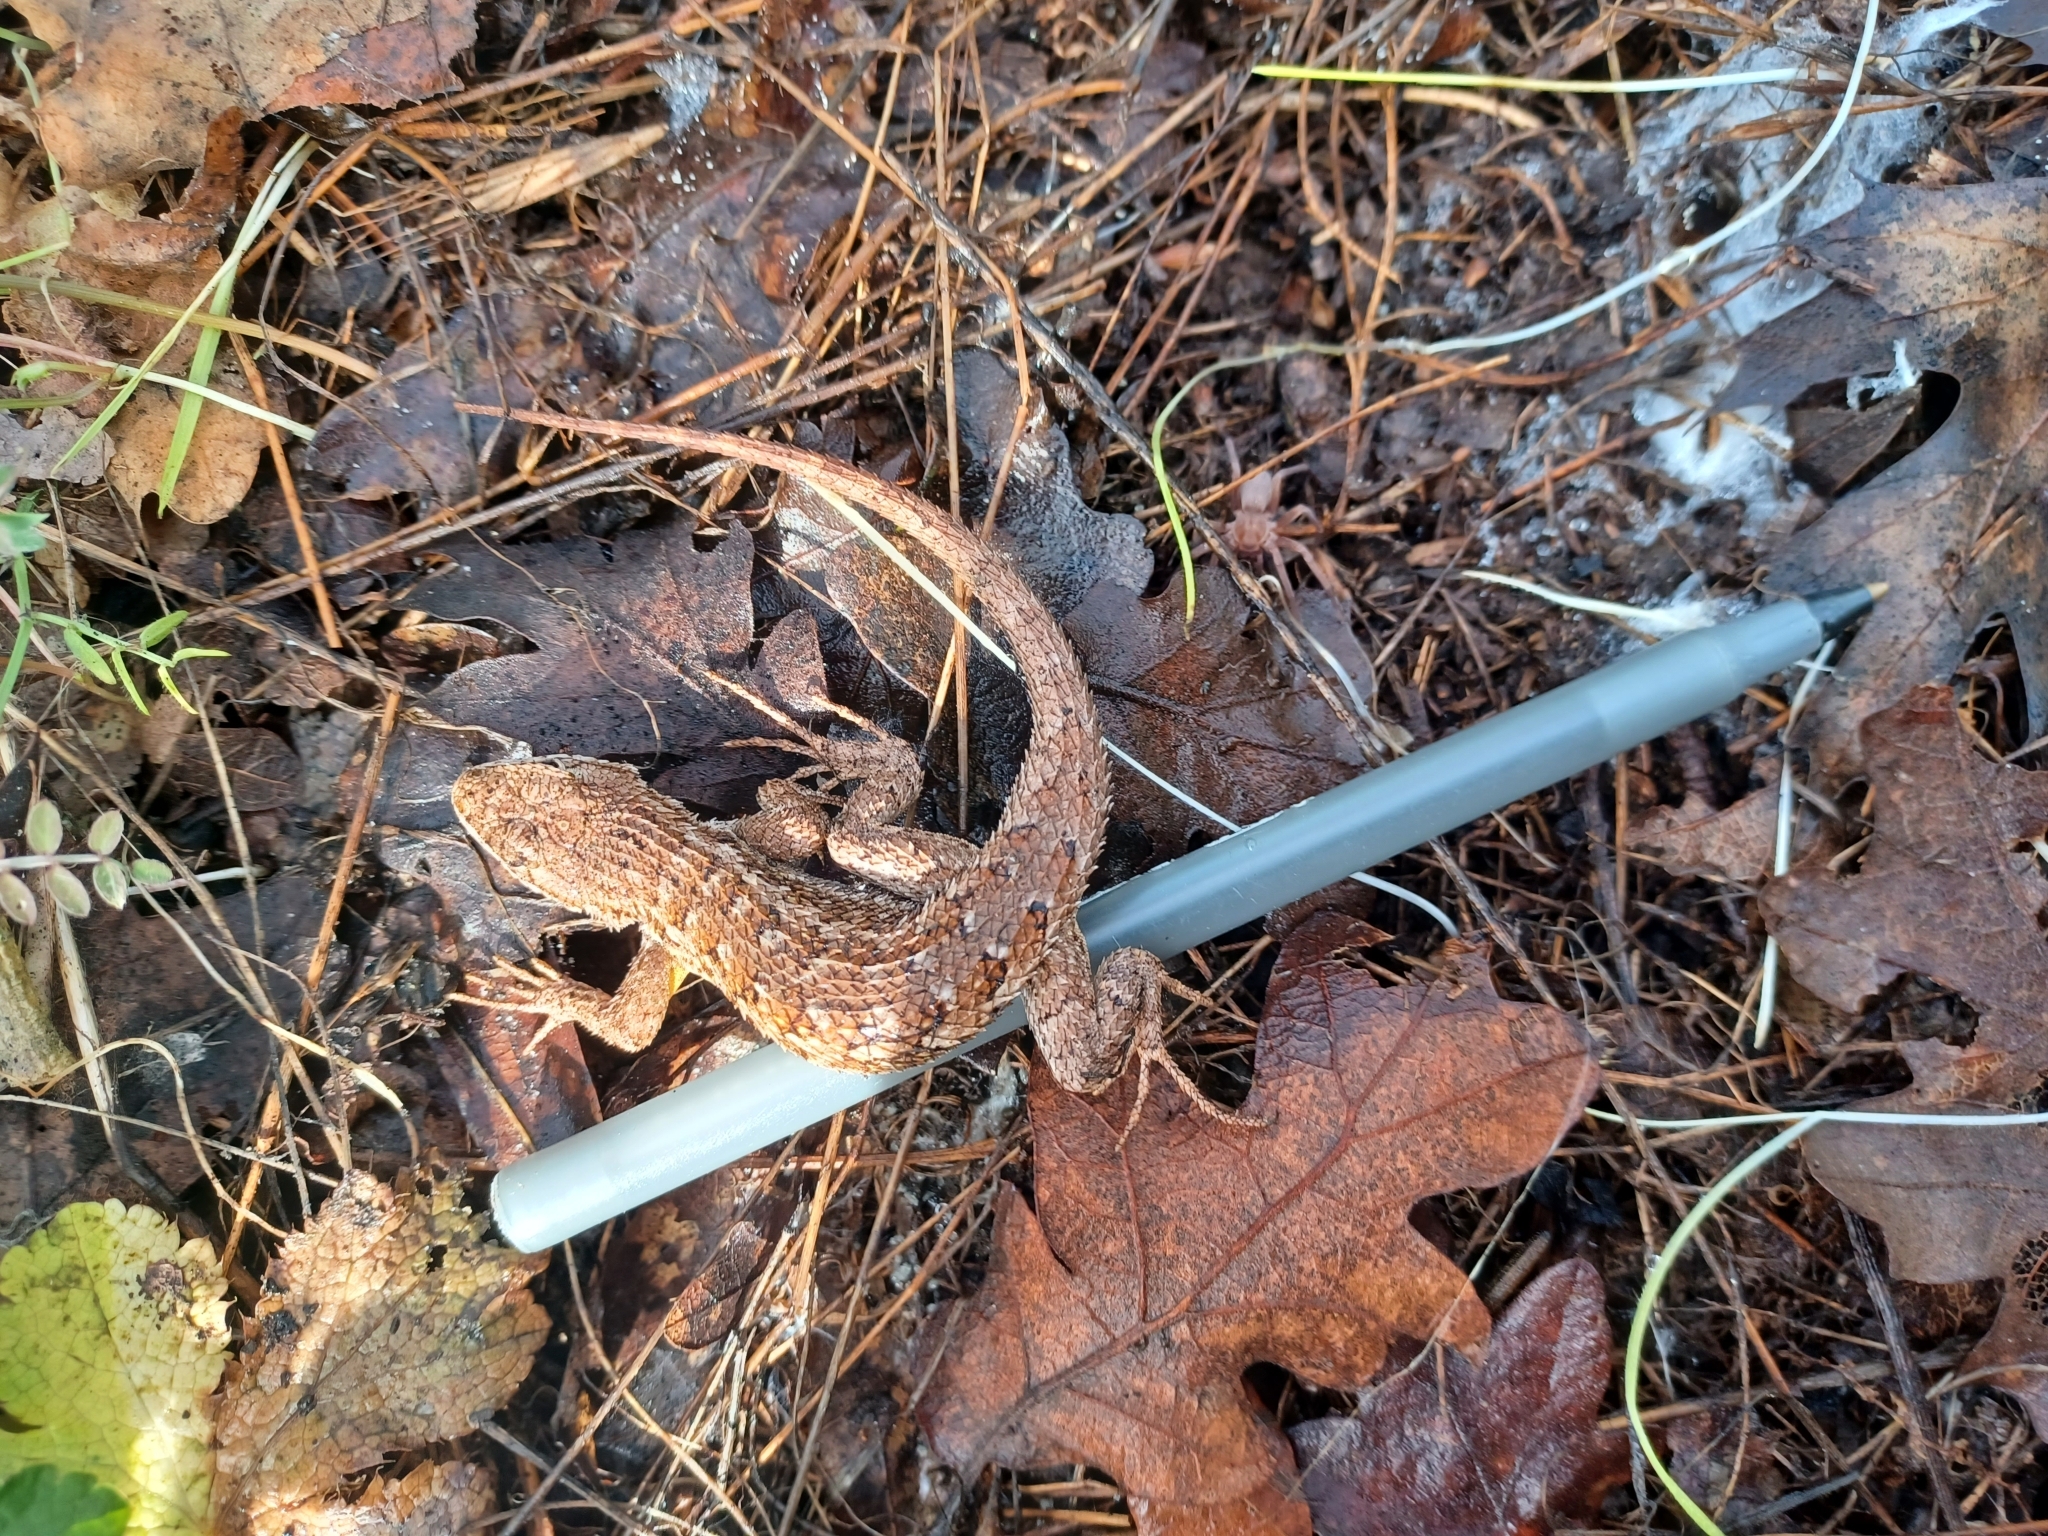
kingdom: Animalia
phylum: Chordata
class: Squamata
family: Phrynosomatidae
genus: Sceloporus
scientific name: Sceloporus occidentalis
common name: Western fence lizard
